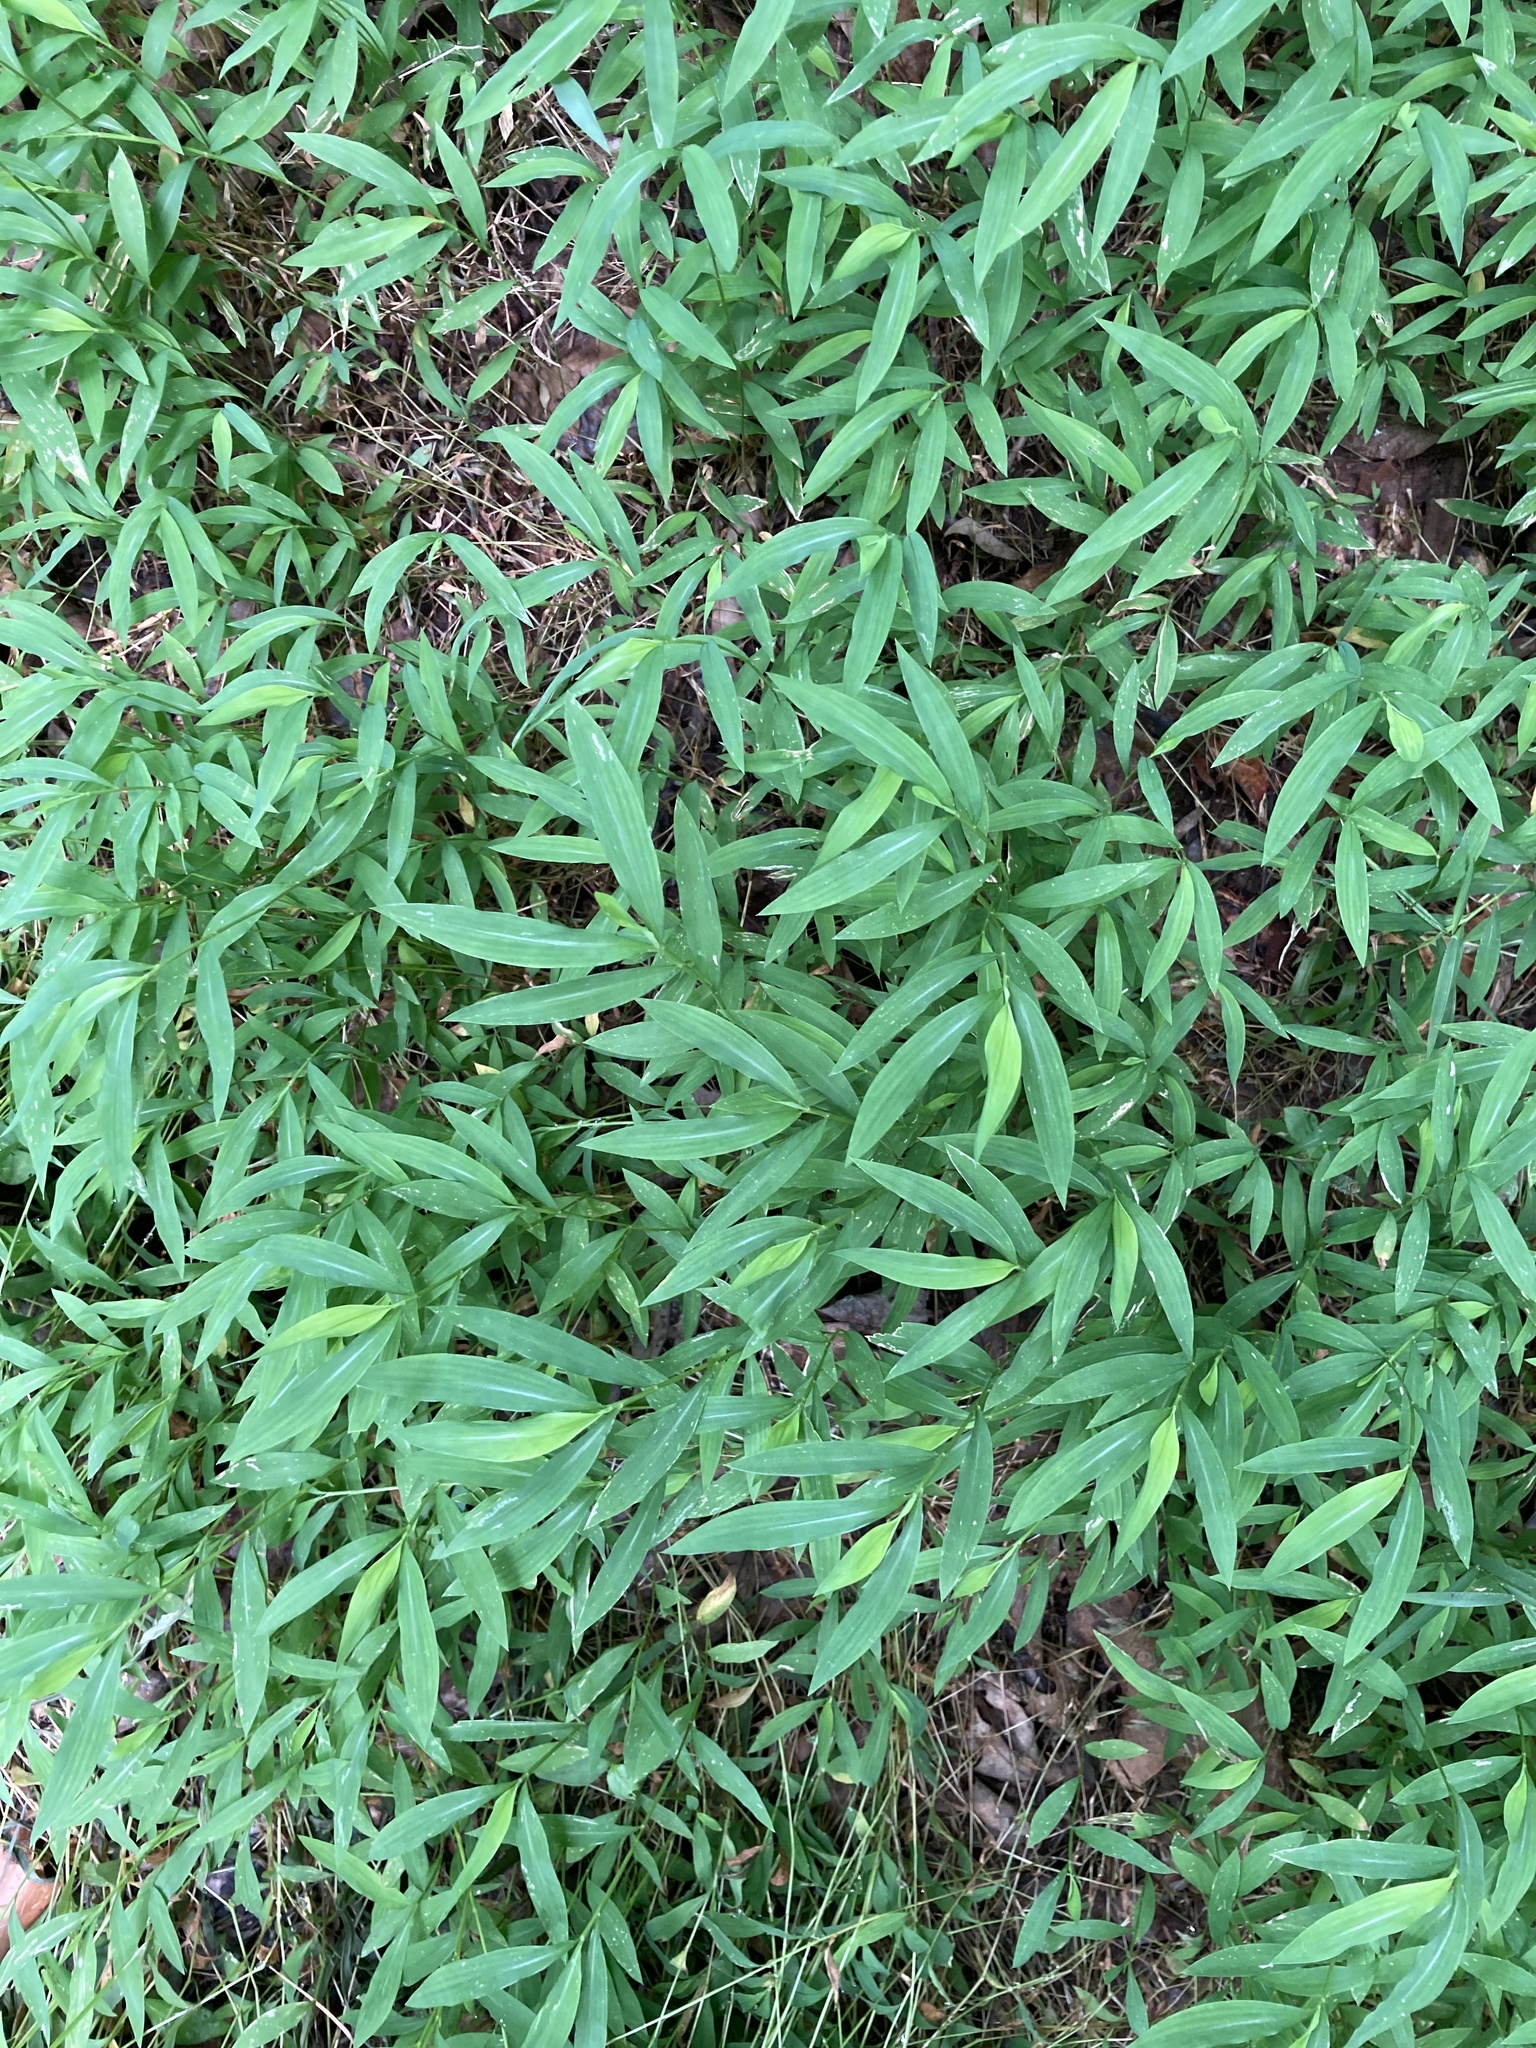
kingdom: Plantae
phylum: Tracheophyta
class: Liliopsida
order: Poales
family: Poaceae
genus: Microstegium
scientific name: Microstegium vimineum
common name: Japanese stiltgrass
